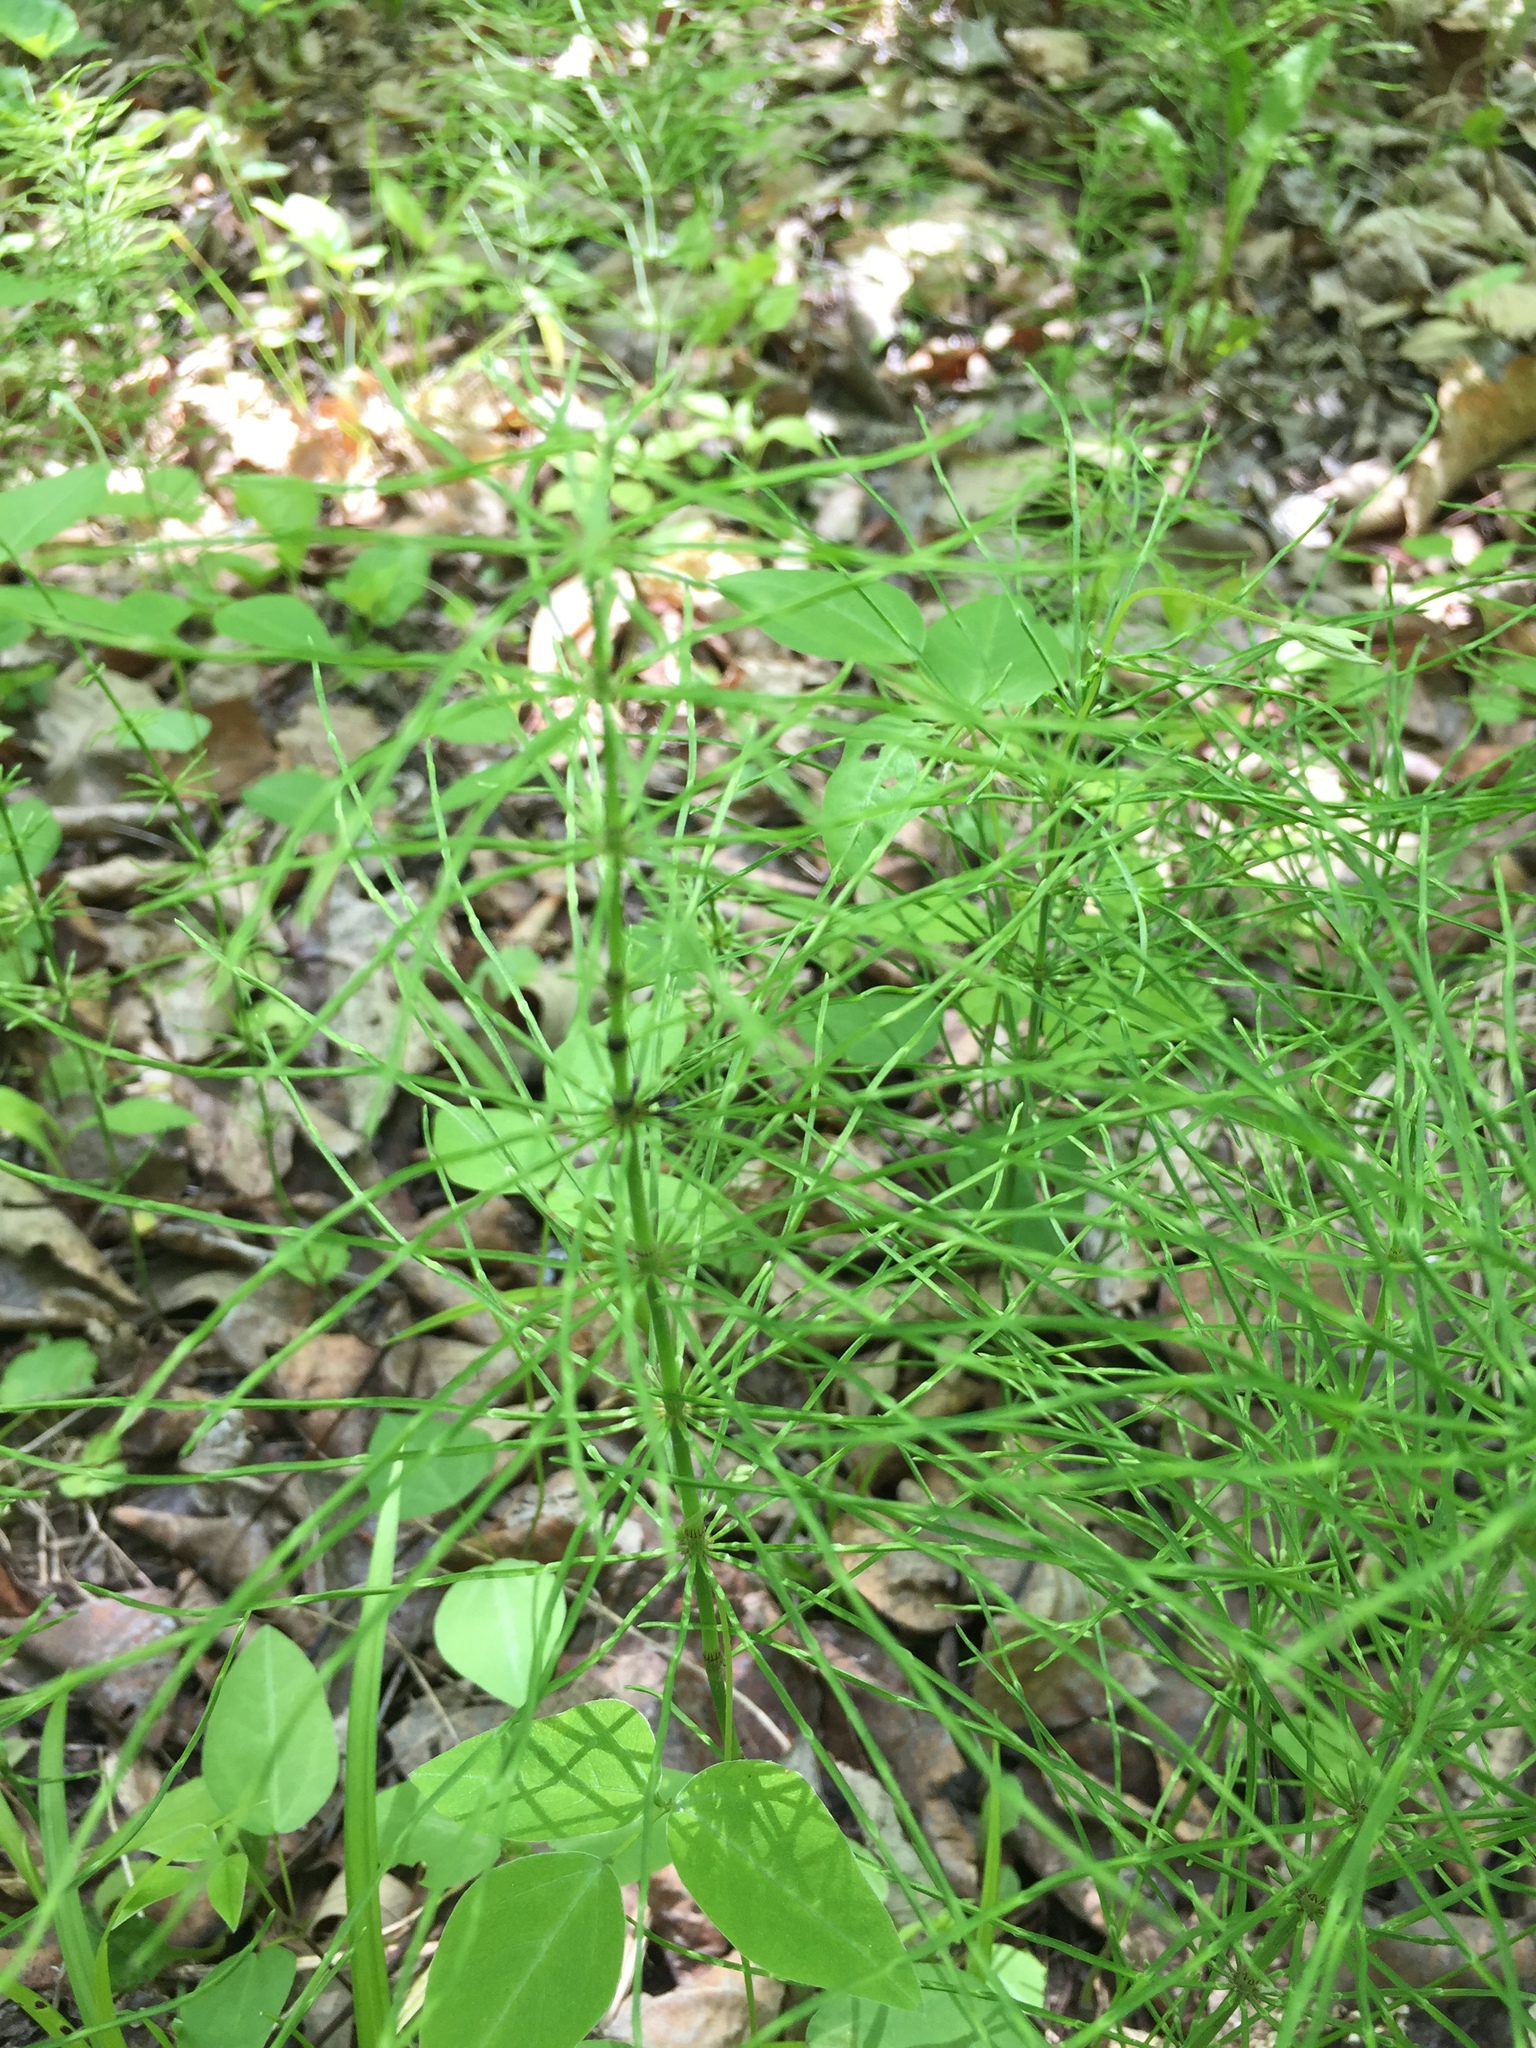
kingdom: Plantae
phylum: Tracheophyta
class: Polypodiopsida
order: Equisetales
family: Equisetaceae
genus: Equisetum
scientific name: Equisetum arvense
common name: Field horsetail
